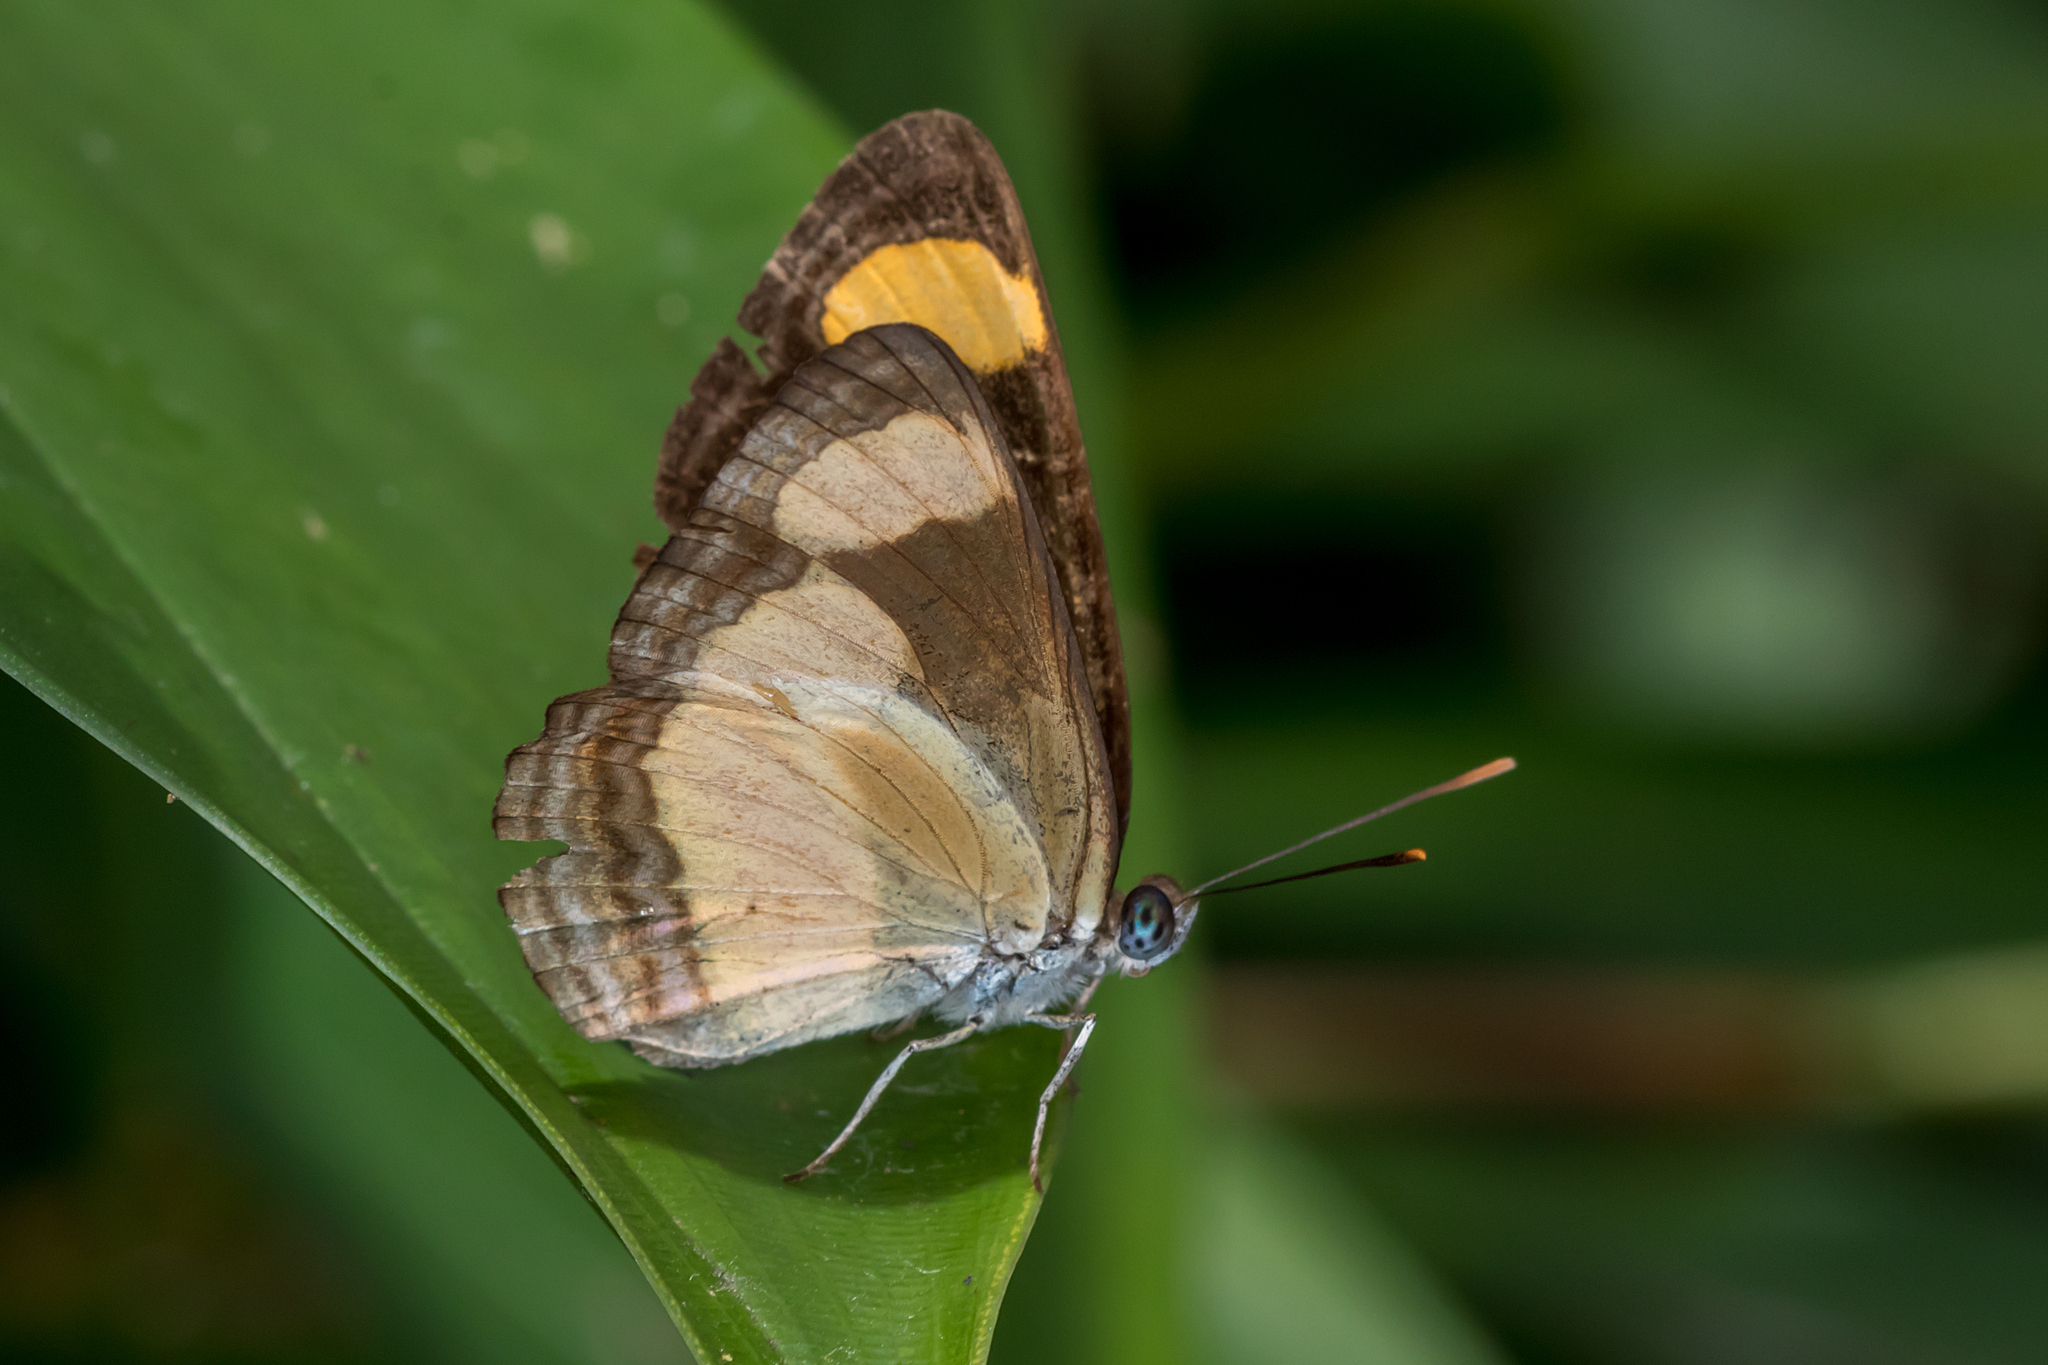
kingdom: Animalia
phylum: Arthropoda
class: Insecta
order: Lepidoptera
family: Nymphalidae
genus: Pantoporia
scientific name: Pantoporia consimilis
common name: Orange plane
